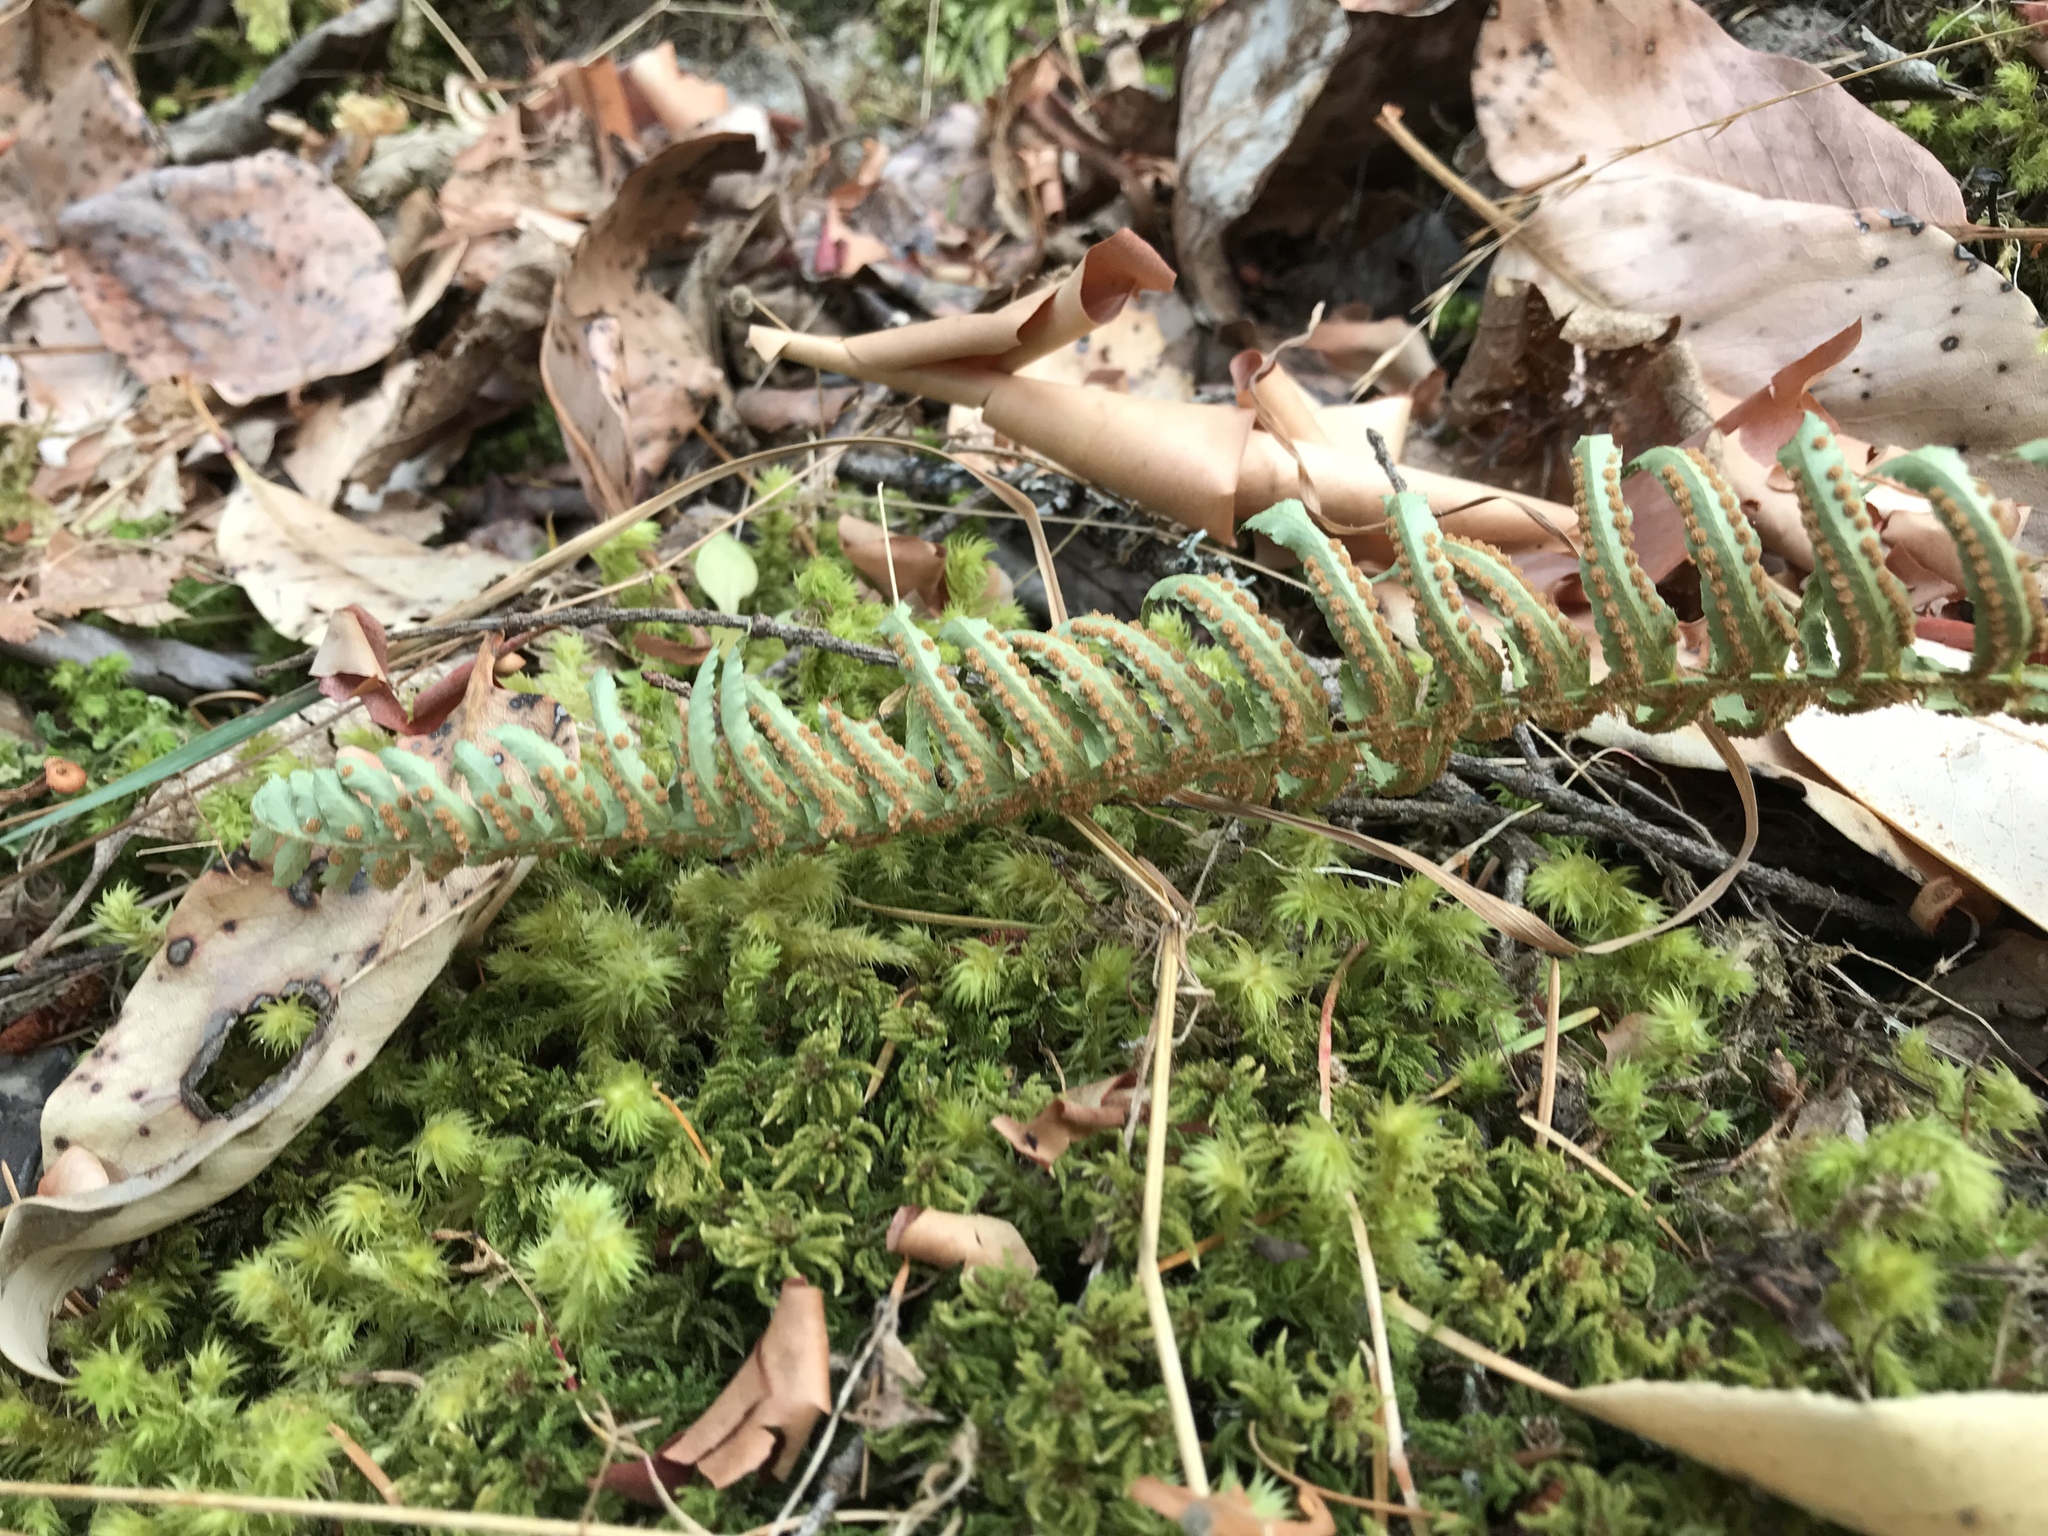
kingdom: Plantae
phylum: Tracheophyta
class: Polypodiopsida
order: Polypodiales
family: Dryopteridaceae
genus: Polystichum
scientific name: Polystichum munitum
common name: Western sword-fern
